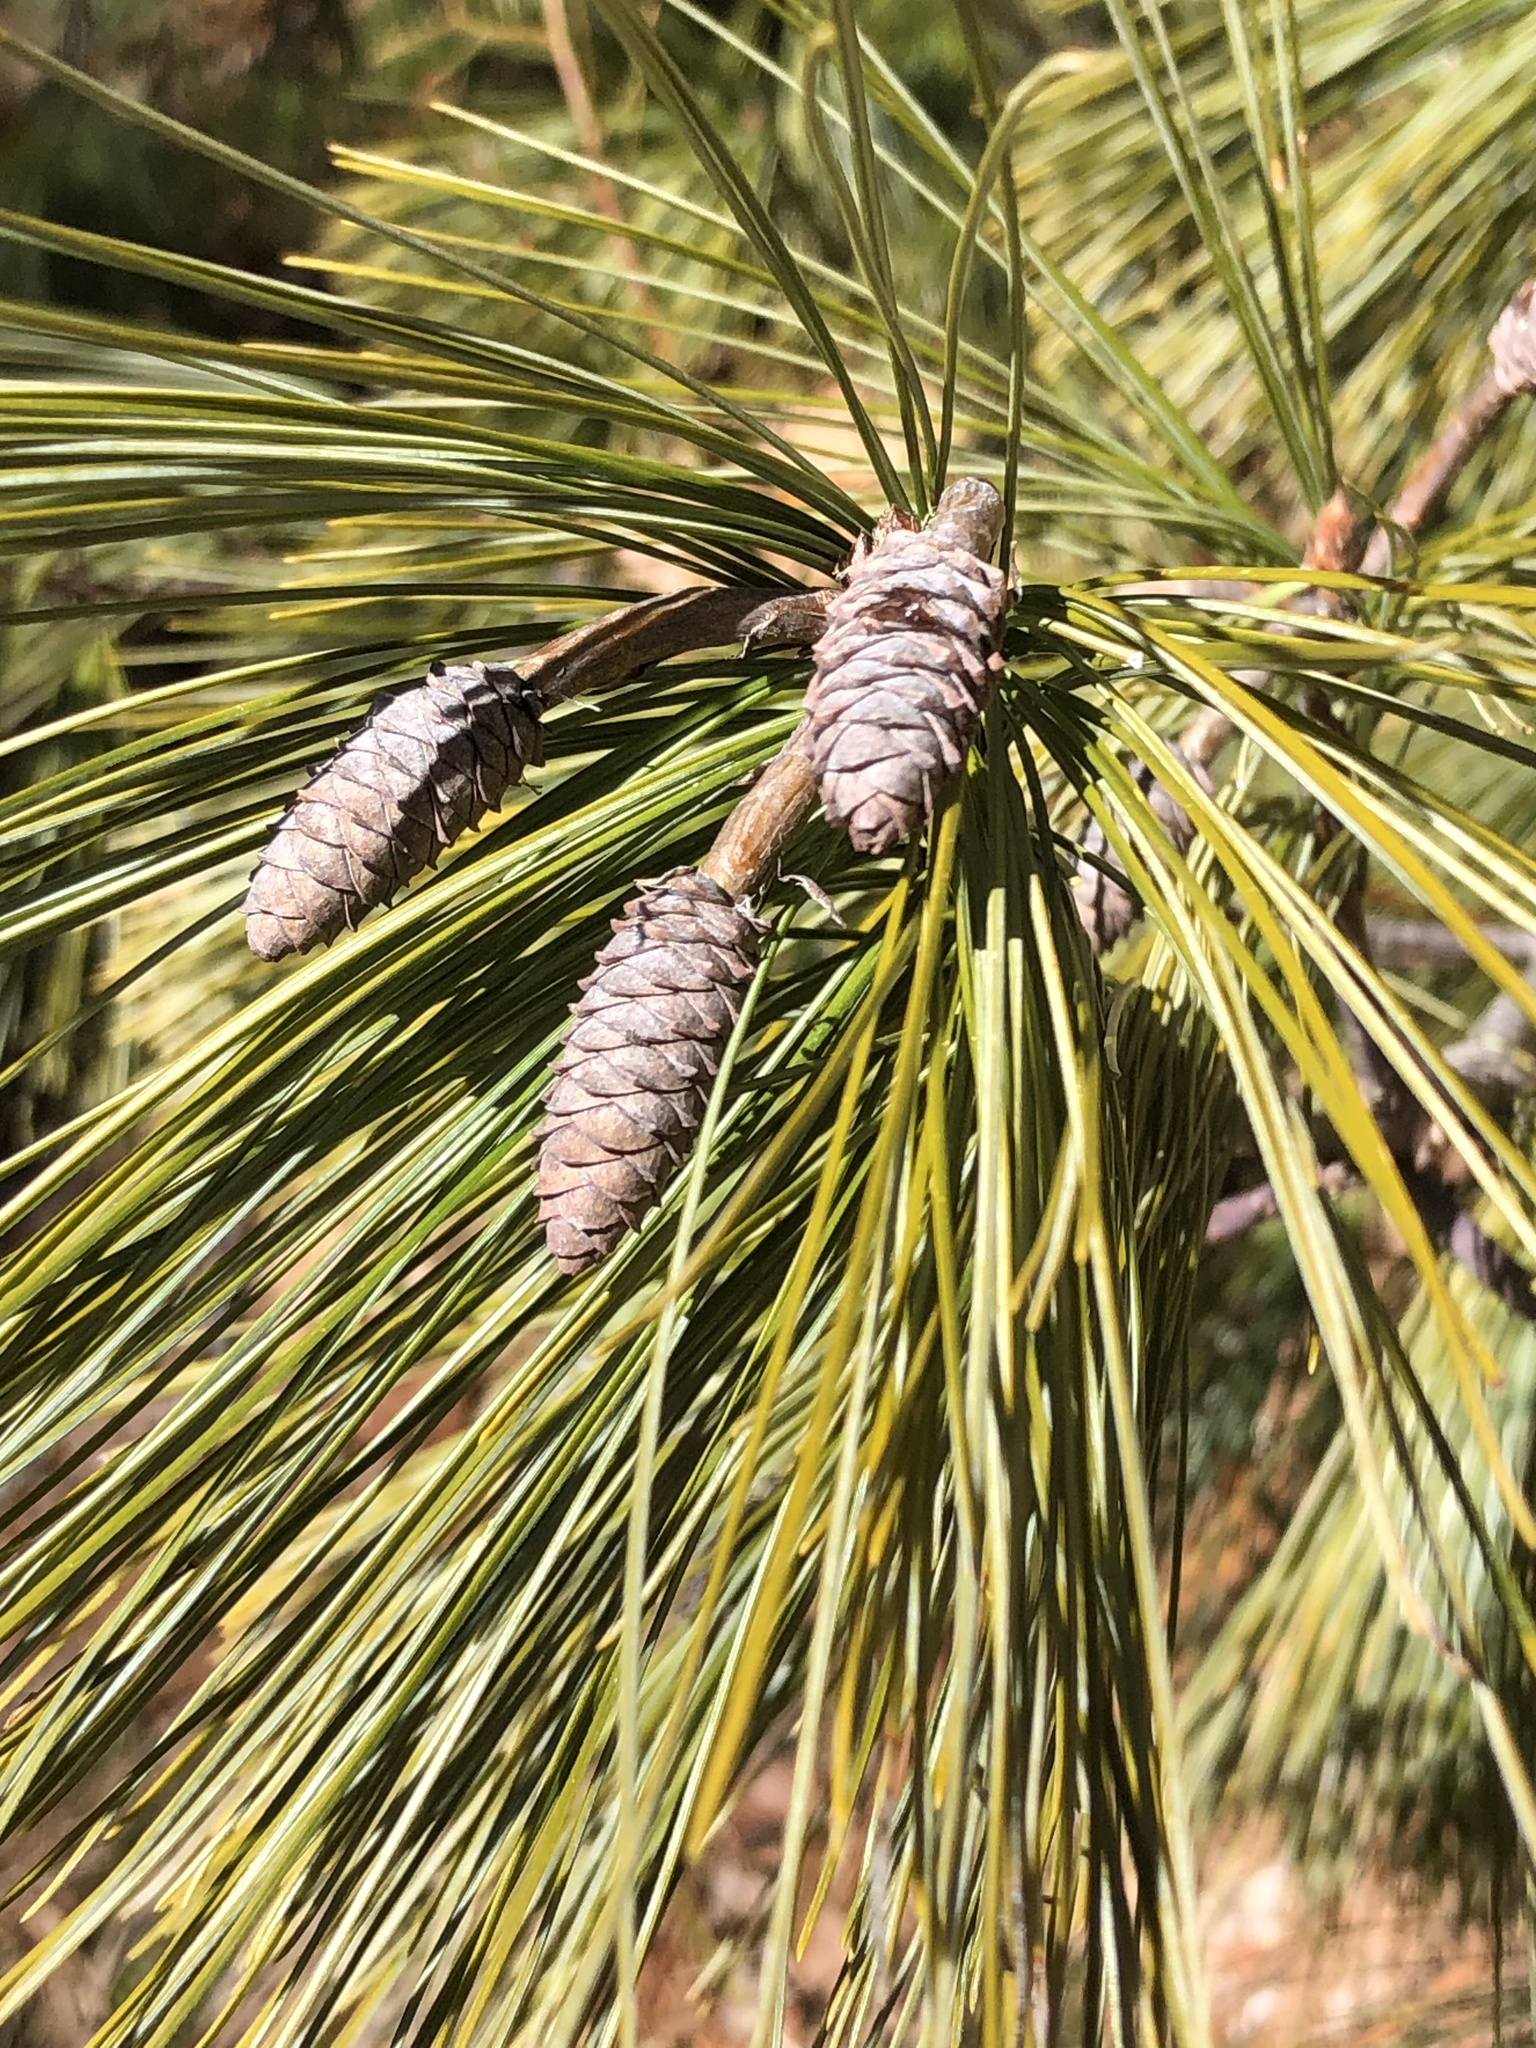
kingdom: Plantae
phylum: Tracheophyta
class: Pinopsida
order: Pinales
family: Pinaceae
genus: Pinus
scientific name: Pinus strobus
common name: Weymouth pine
